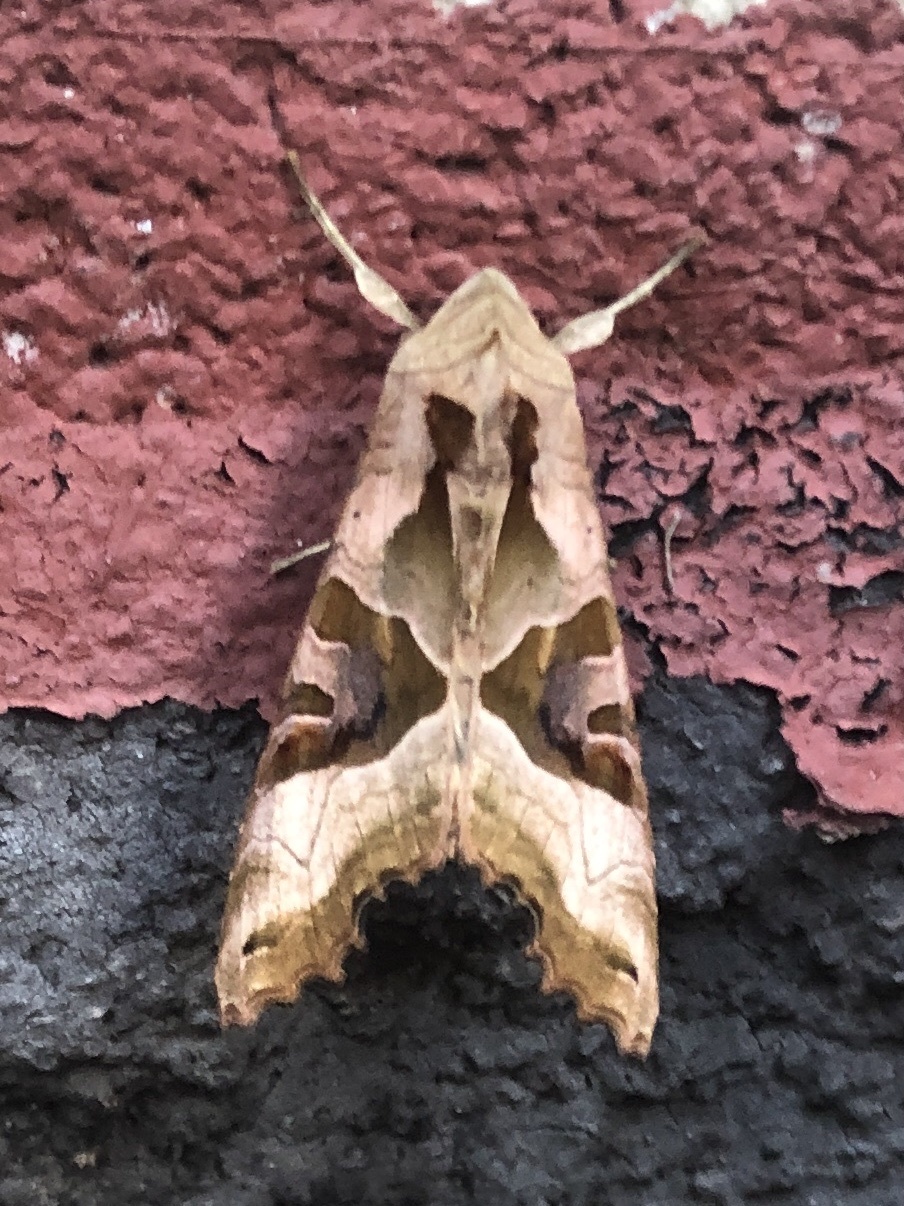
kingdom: Animalia
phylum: Arthropoda
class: Insecta
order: Lepidoptera
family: Noctuidae
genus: Phlogophora
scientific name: Phlogophora meticulosa
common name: Angle shades
